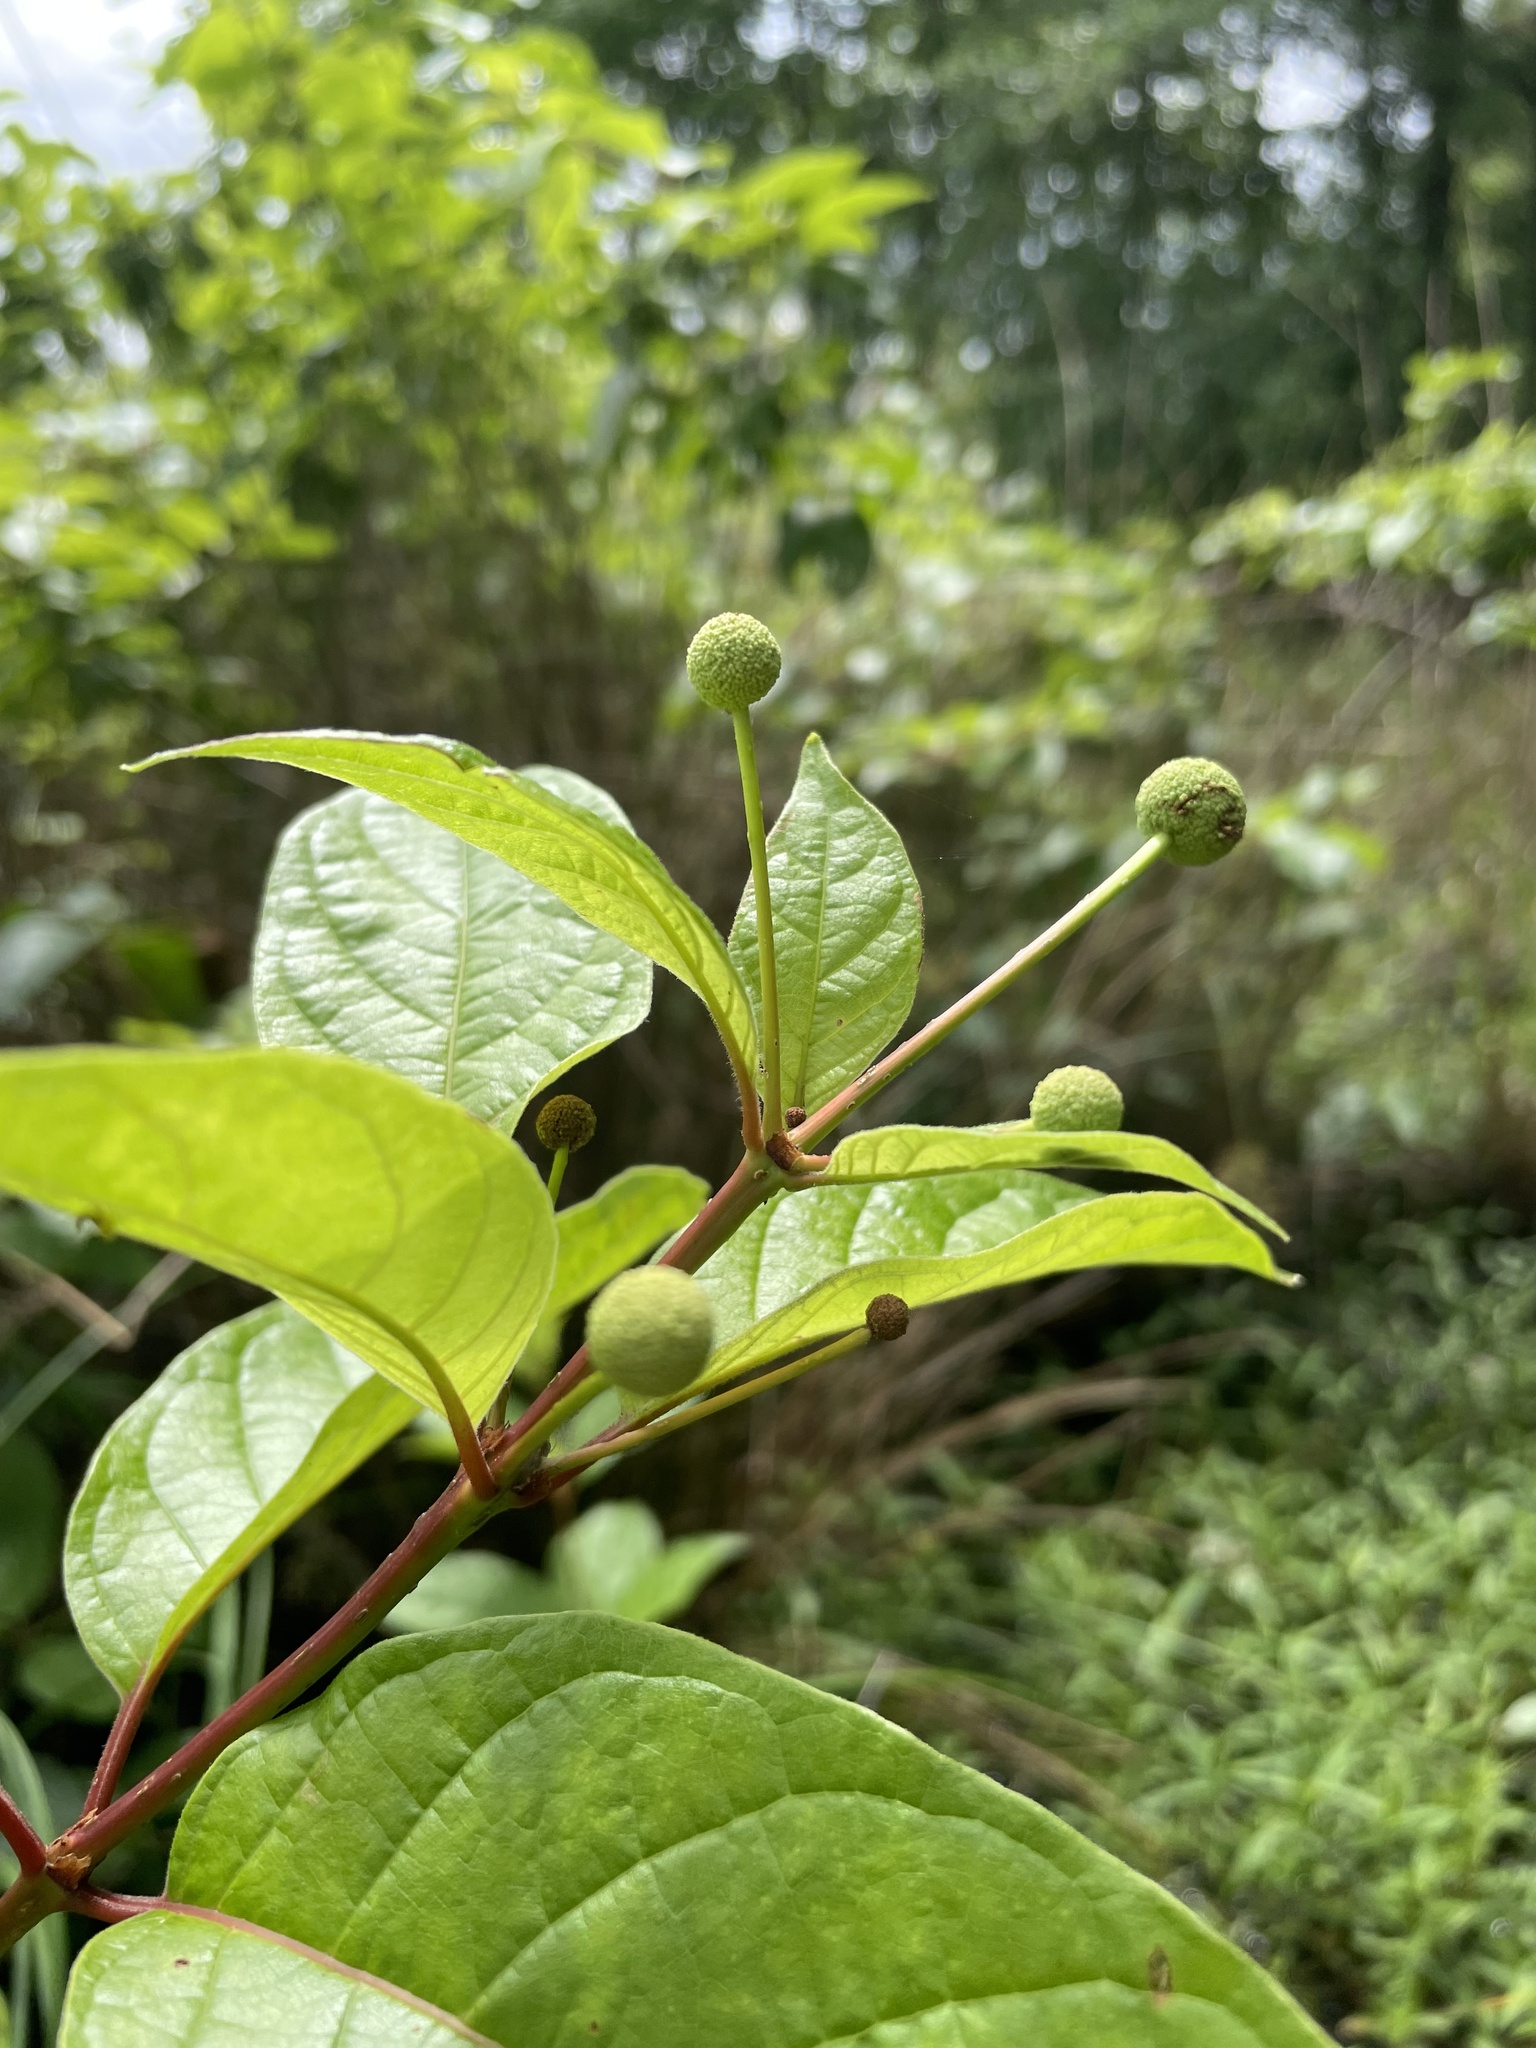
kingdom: Plantae
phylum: Tracheophyta
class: Magnoliopsida
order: Gentianales
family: Rubiaceae
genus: Cephalanthus
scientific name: Cephalanthus occidentalis
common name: Button-willow
